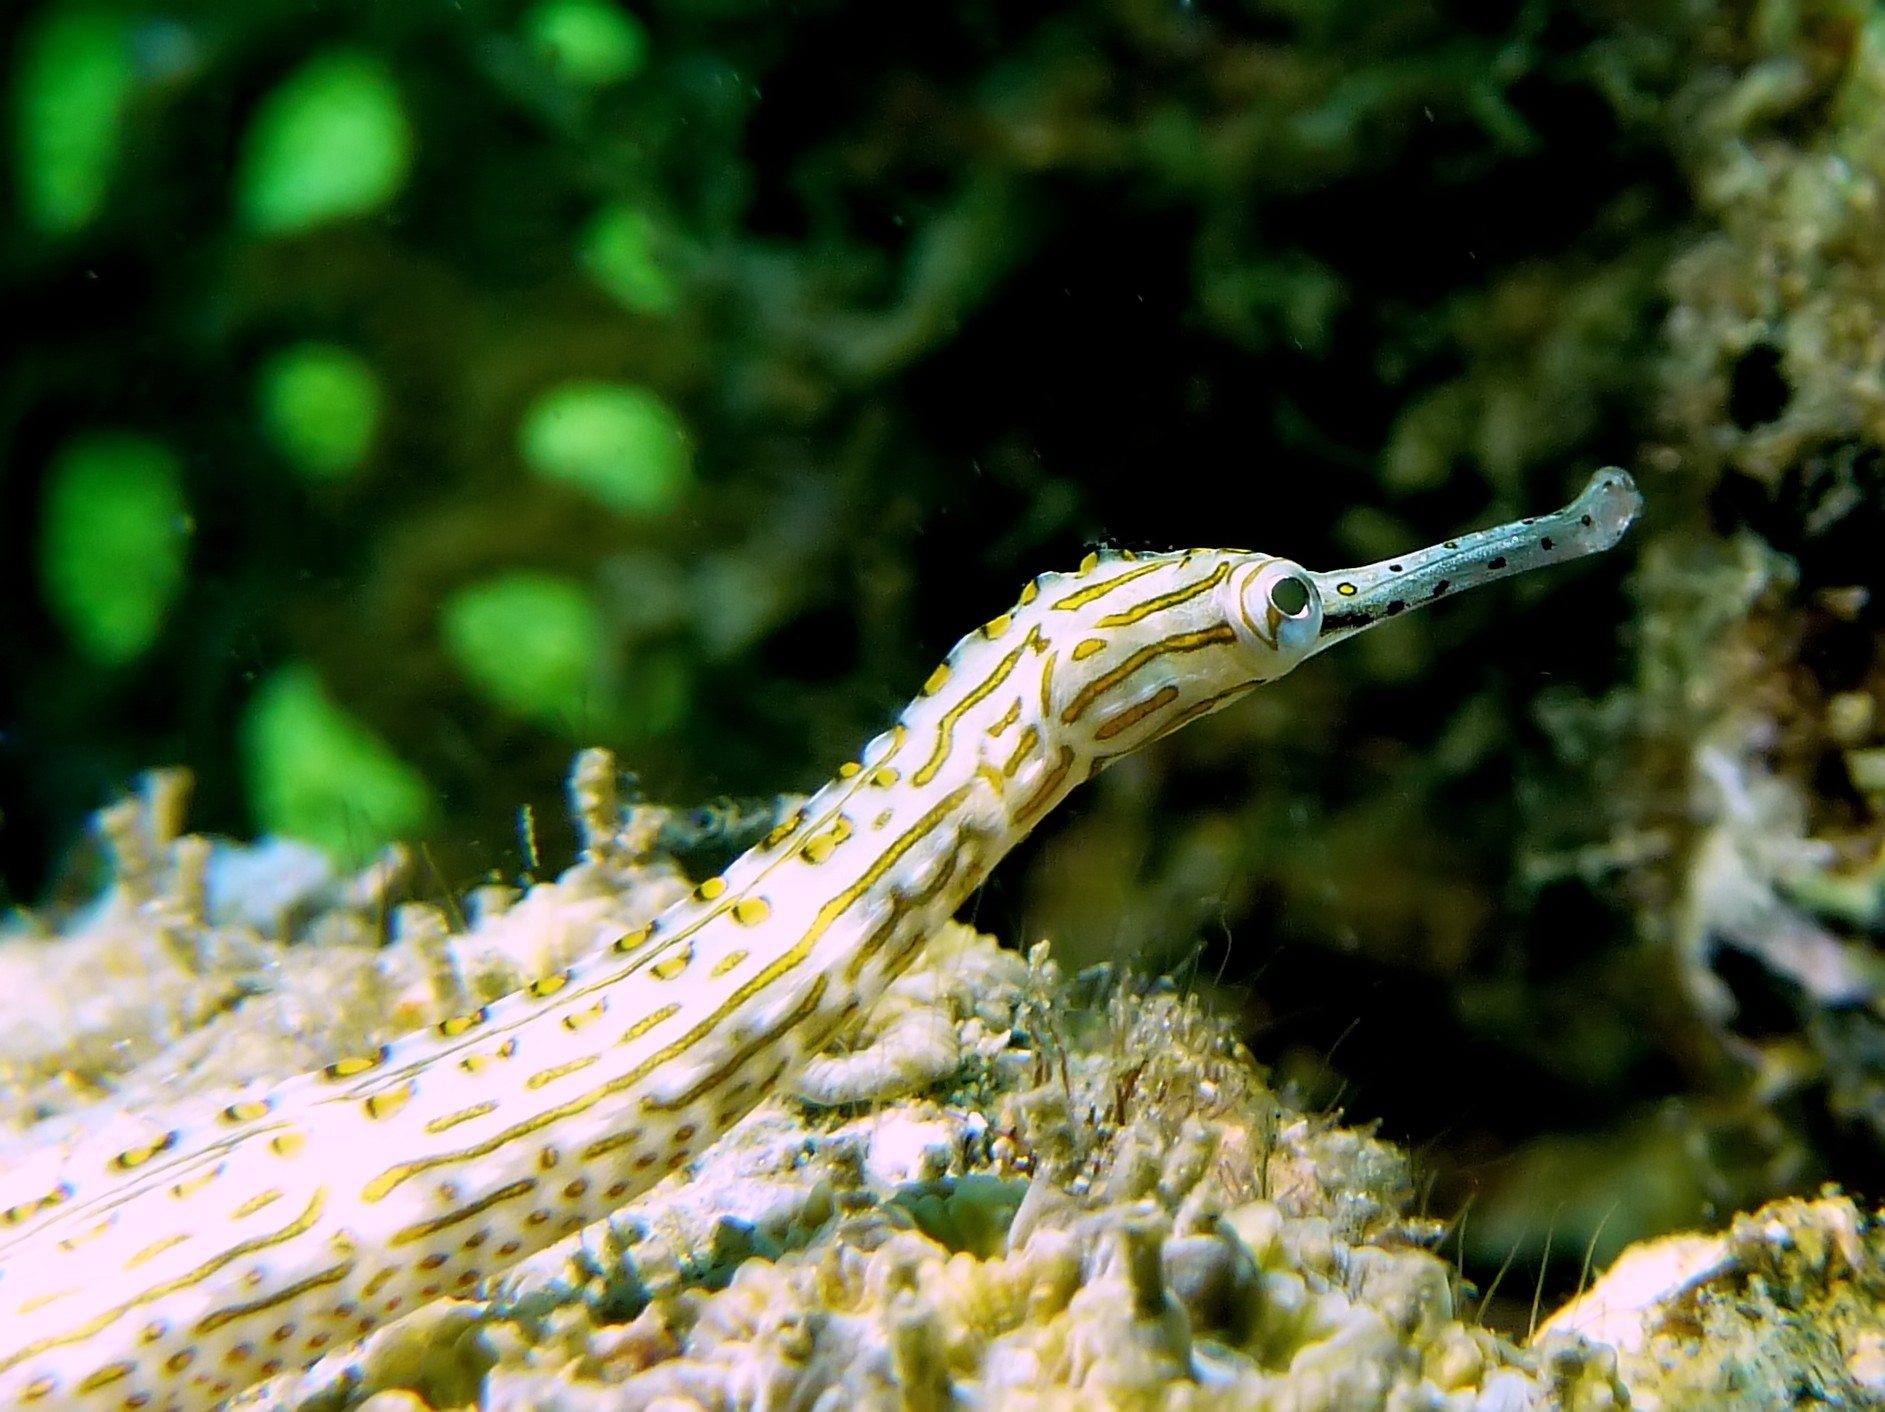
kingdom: Animalia
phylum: Chordata
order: Syngnathiformes
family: Syngnathidae
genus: Corythoichthys
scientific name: Corythoichthys ocellatus
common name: Ocellated pipefish
